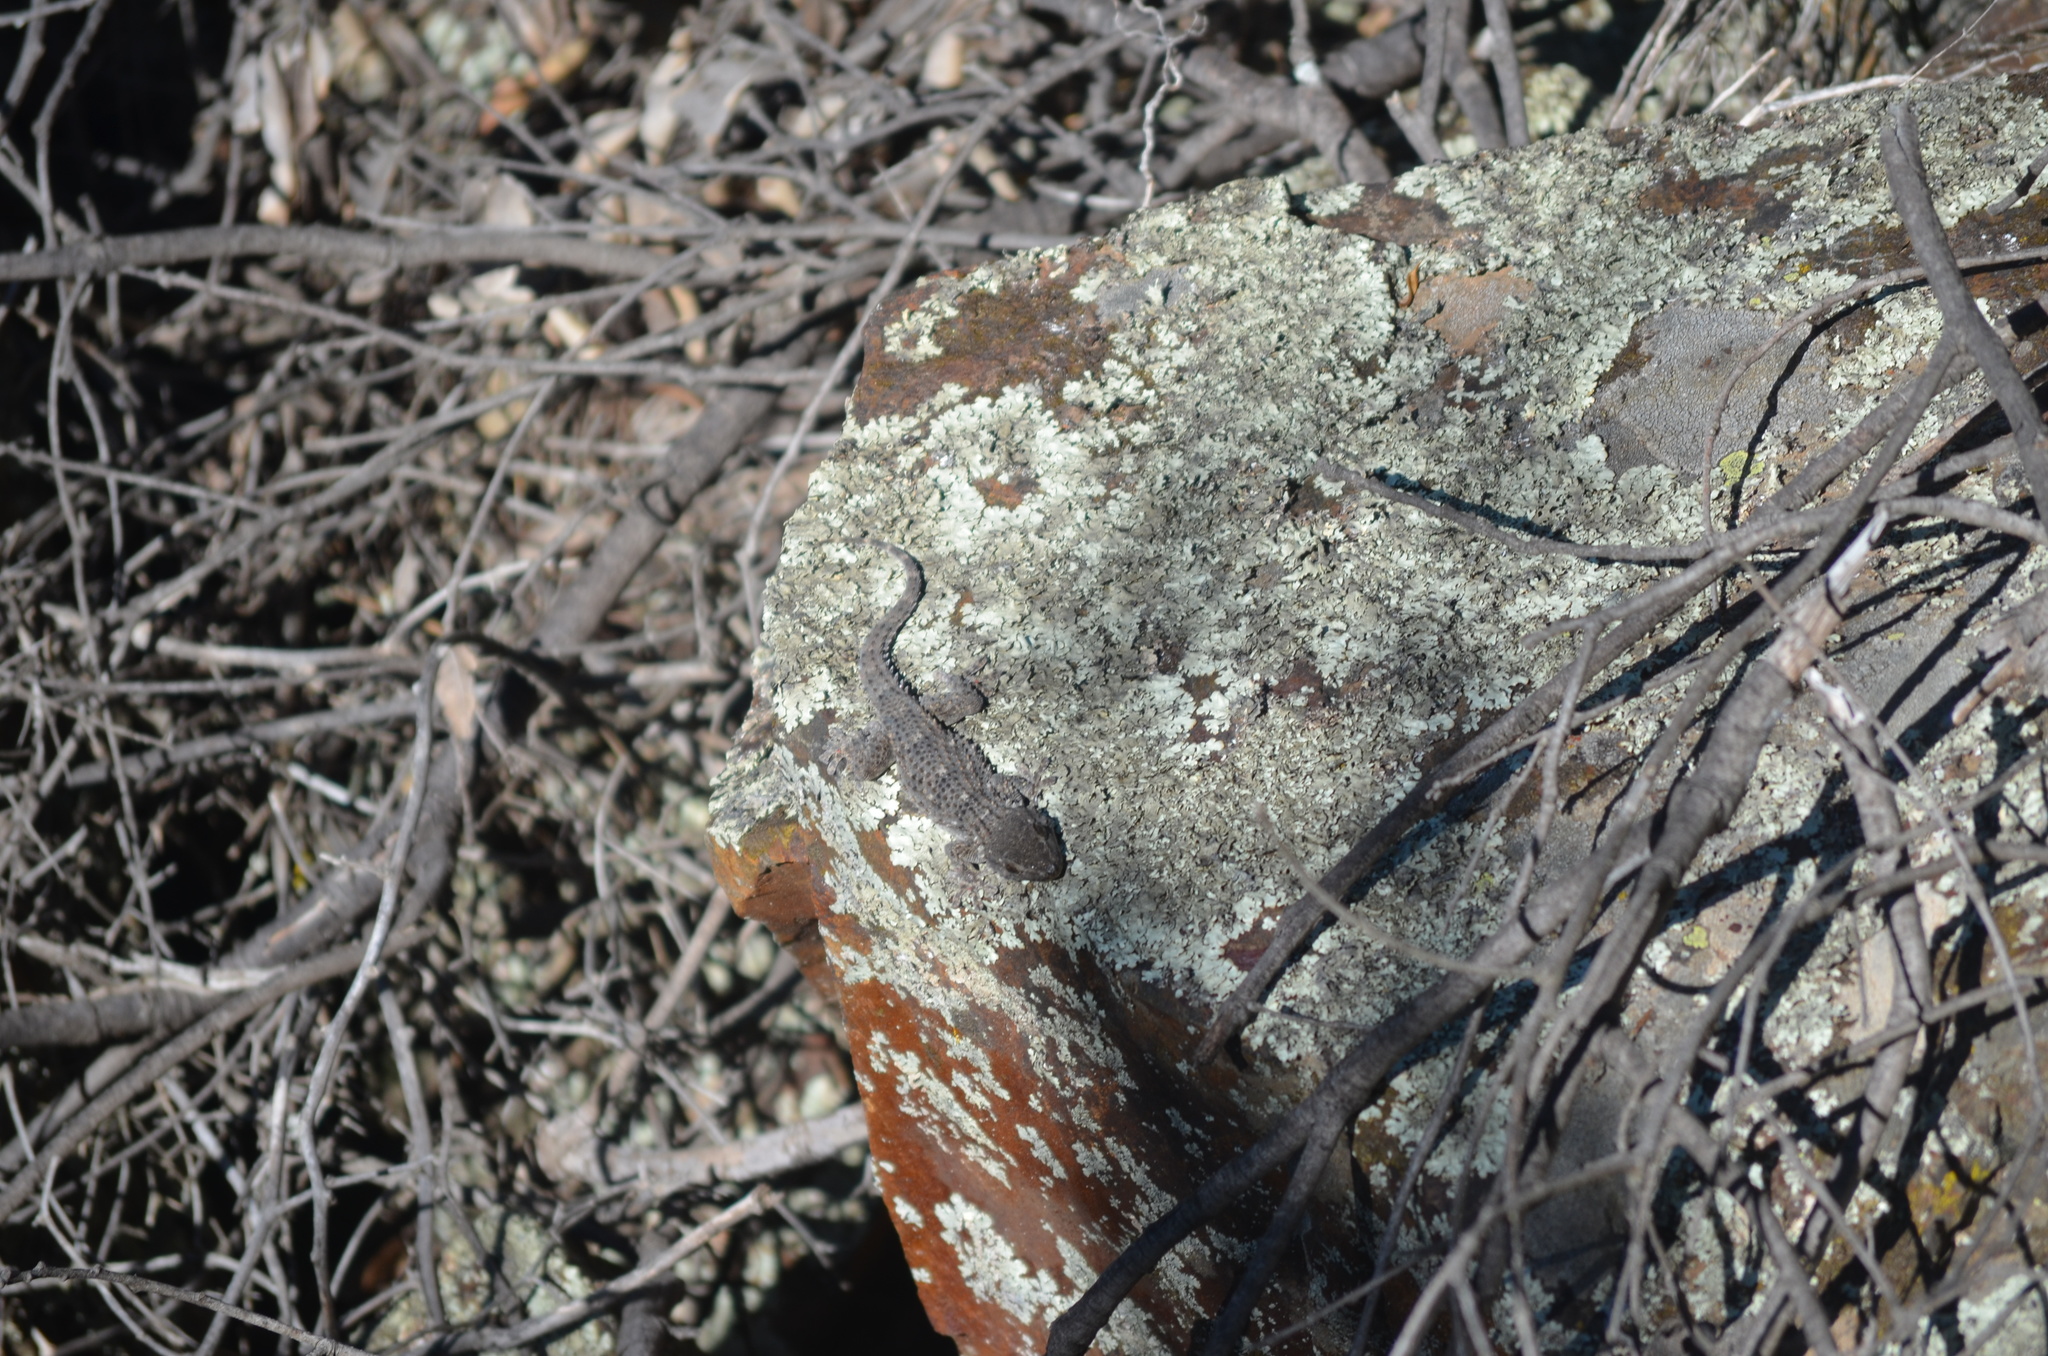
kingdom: Animalia
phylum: Chordata
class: Squamata
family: Phyllodactylidae
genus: Tarentola
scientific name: Tarentola mauritanica
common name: Moorish gecko
